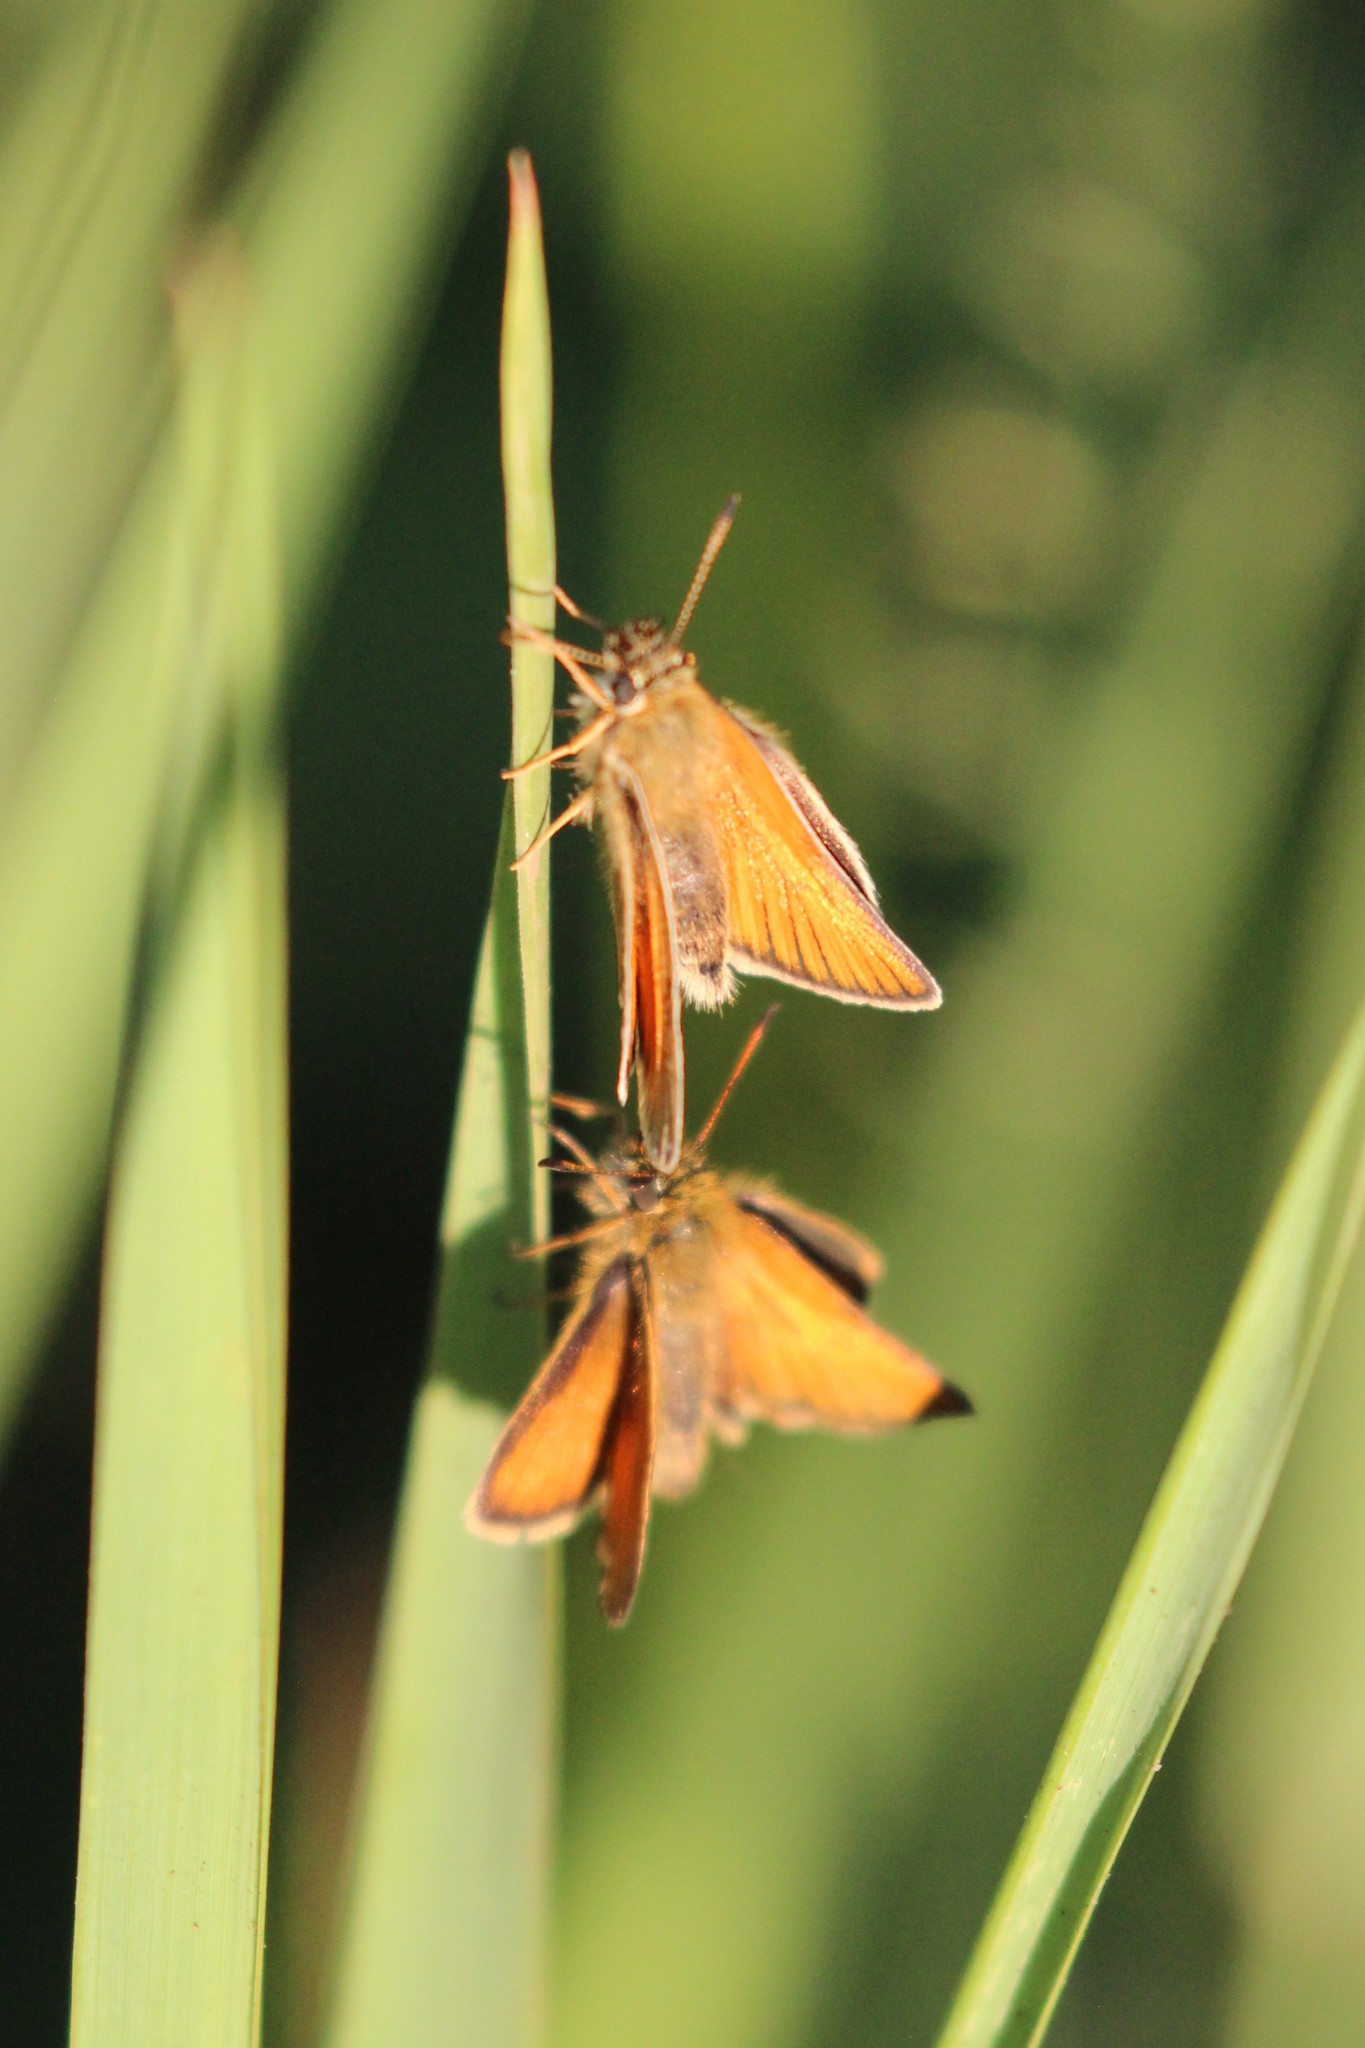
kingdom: Animalia
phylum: Arthropoda
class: Insecta
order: Lepidoptera
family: Hesperiidae
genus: Thymelicus
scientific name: Thymelicus lineola
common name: Essex skipper
